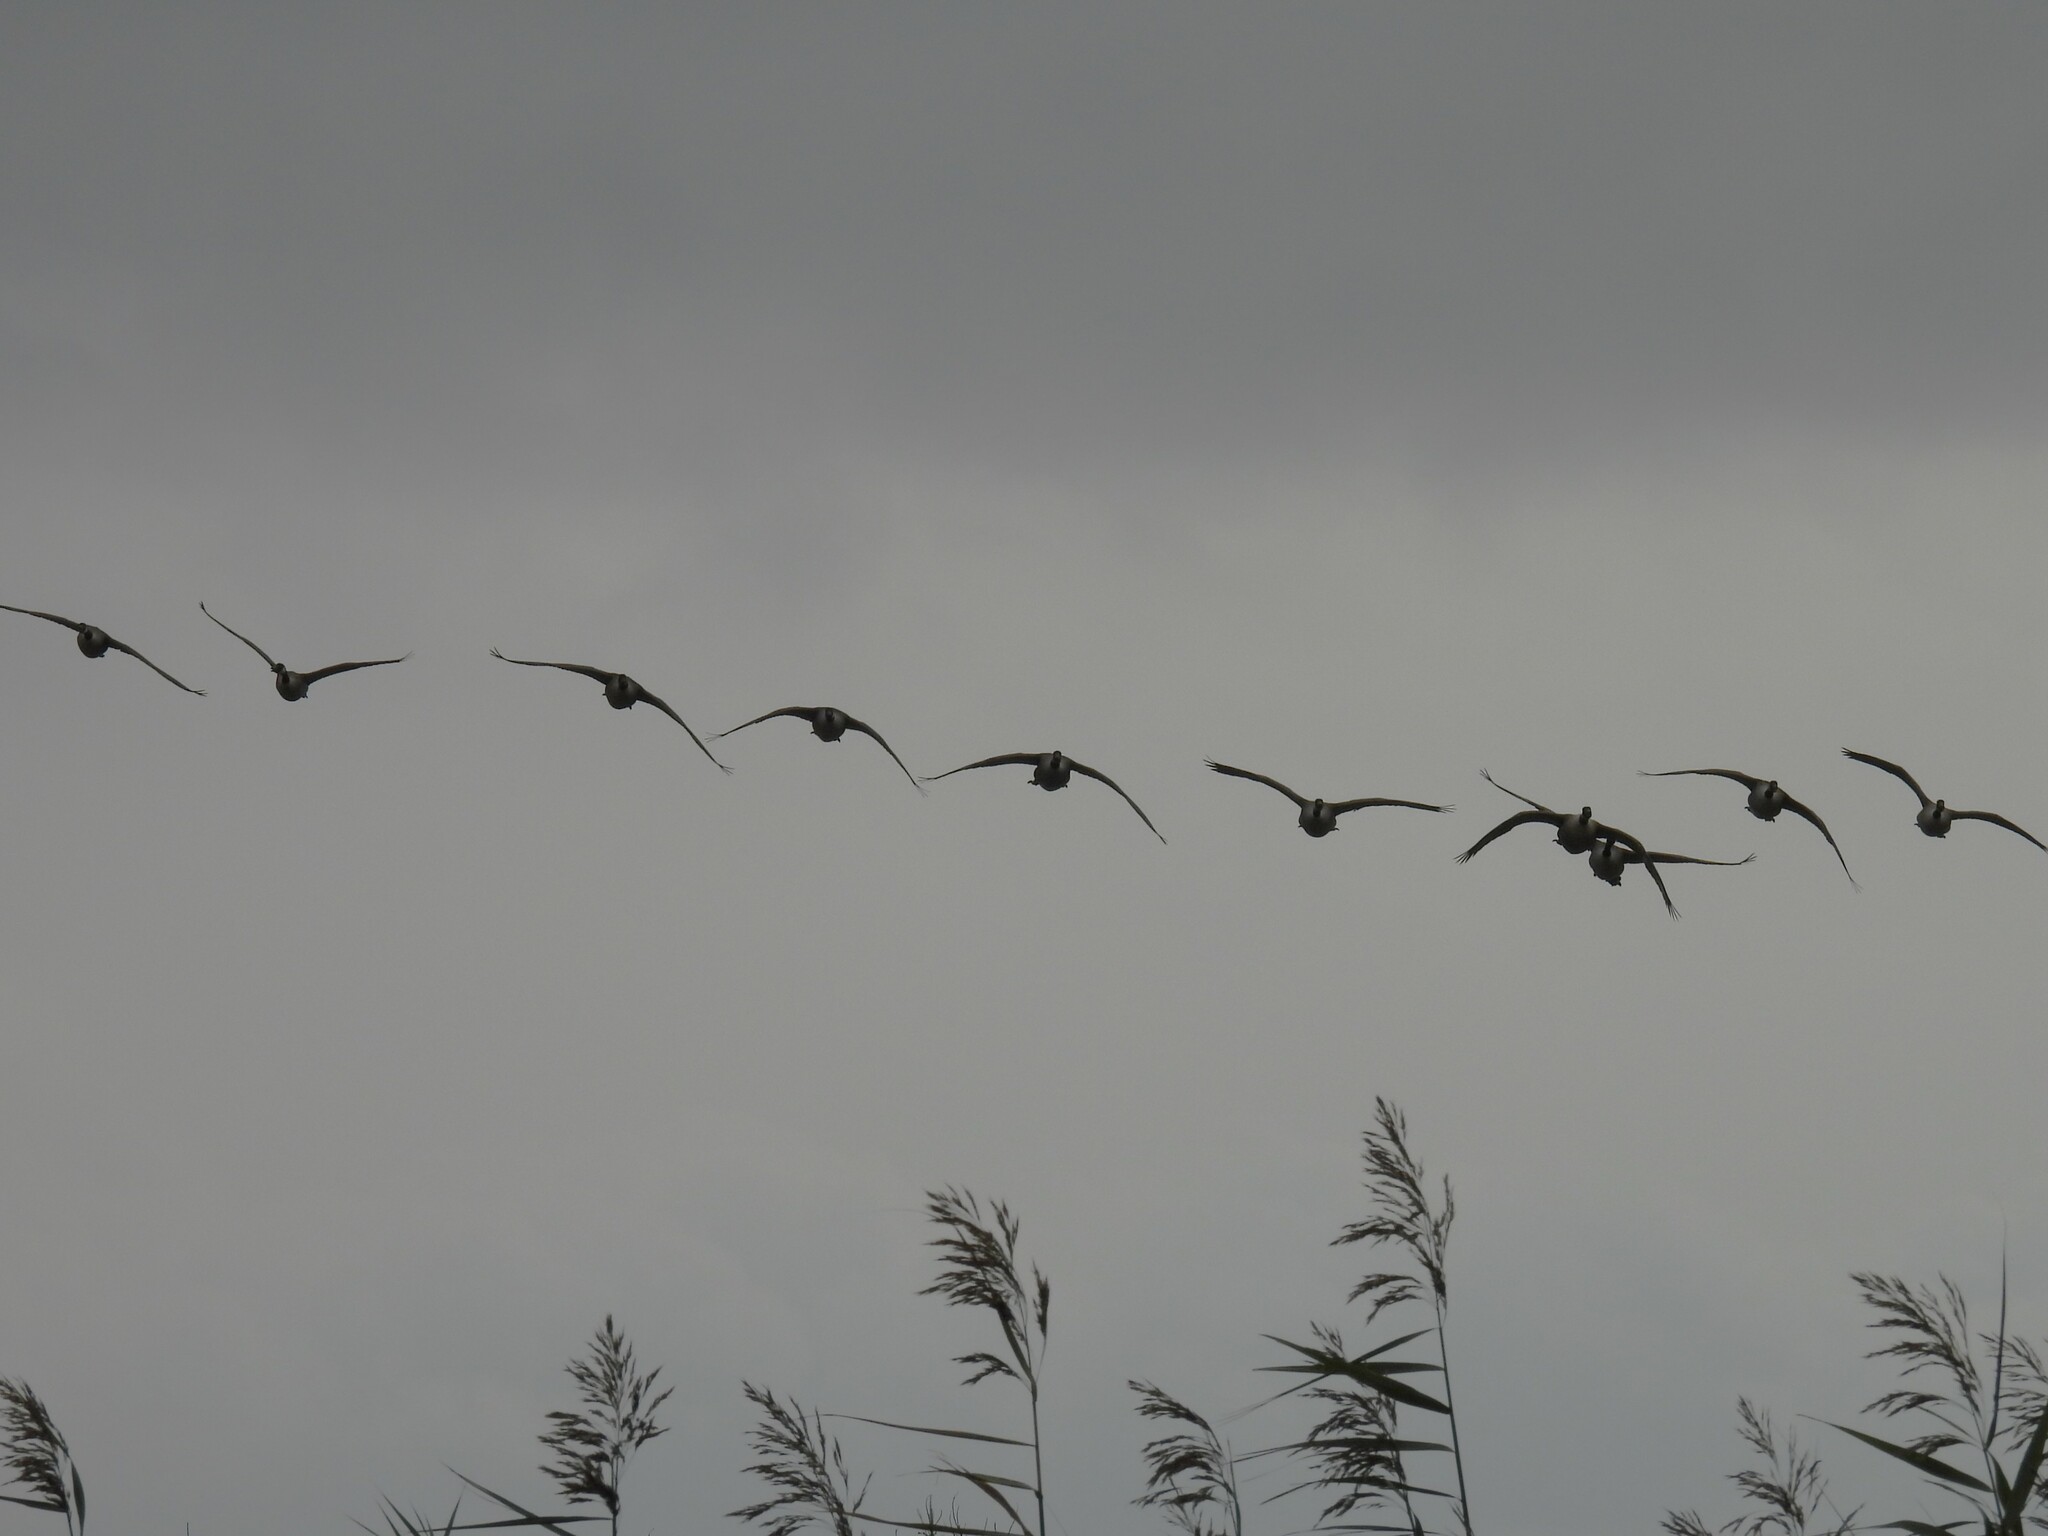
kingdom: Animalia
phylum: Chordata
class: Aves
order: Anseriformes
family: Anatidae
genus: Branta
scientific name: Branta canadensis
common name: Canada goose
